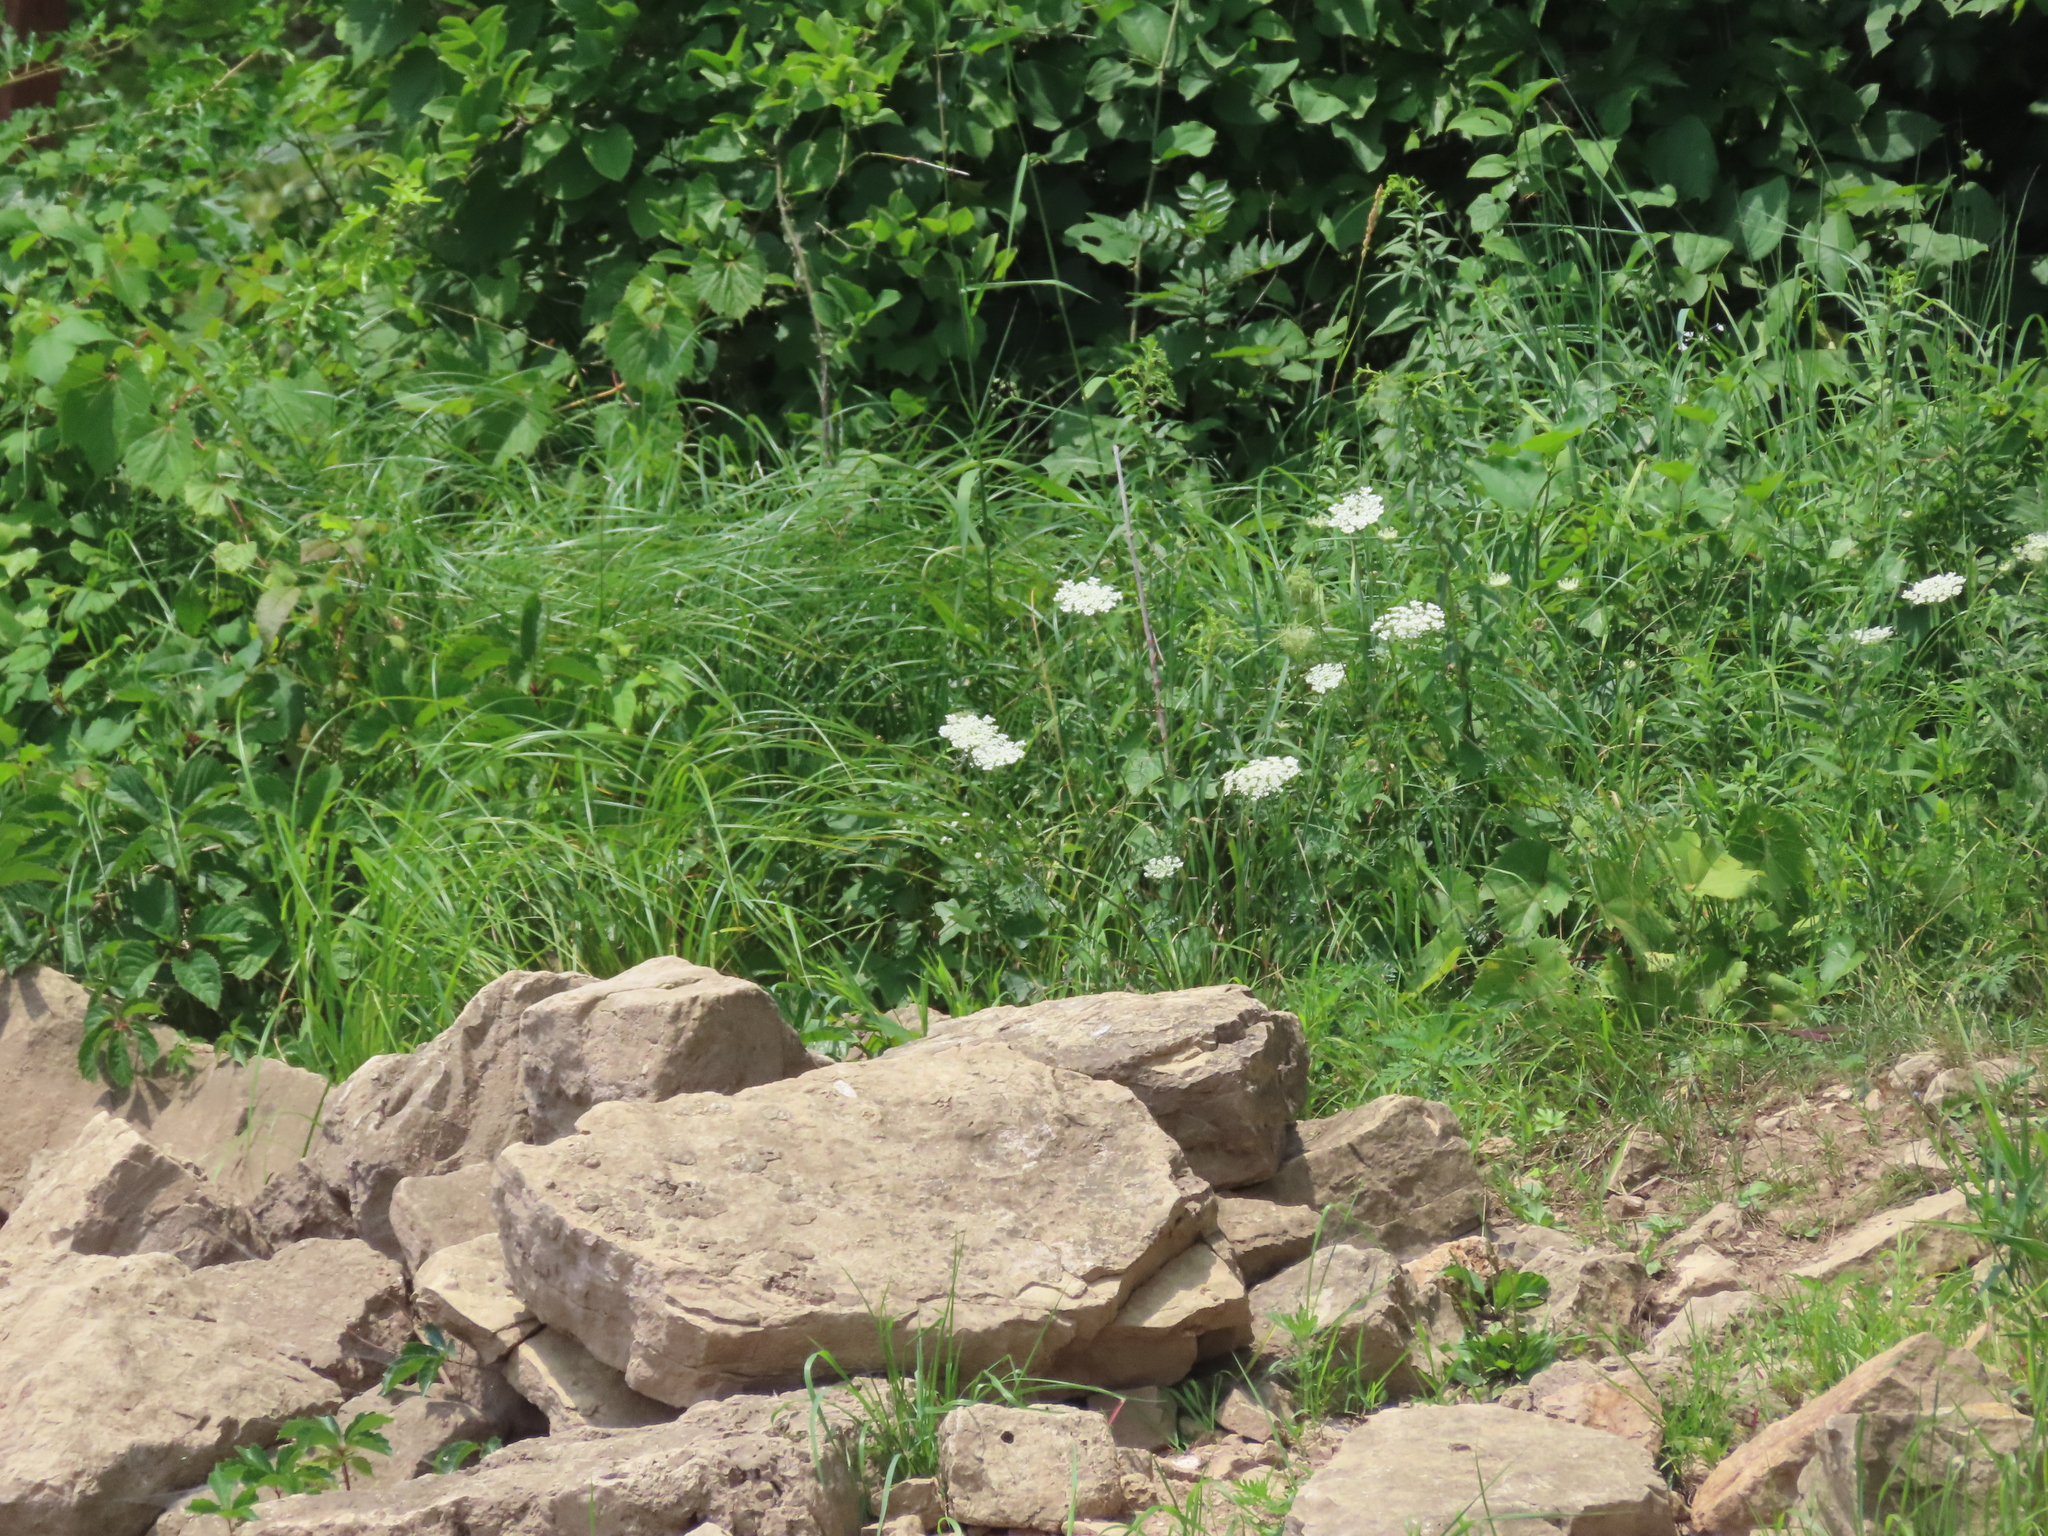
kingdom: Plantae
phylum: Tracheophyta
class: Magnoliopsida
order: Apiales
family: Apiaceae
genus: Daucus
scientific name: Daucus carota
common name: Wild carrot
